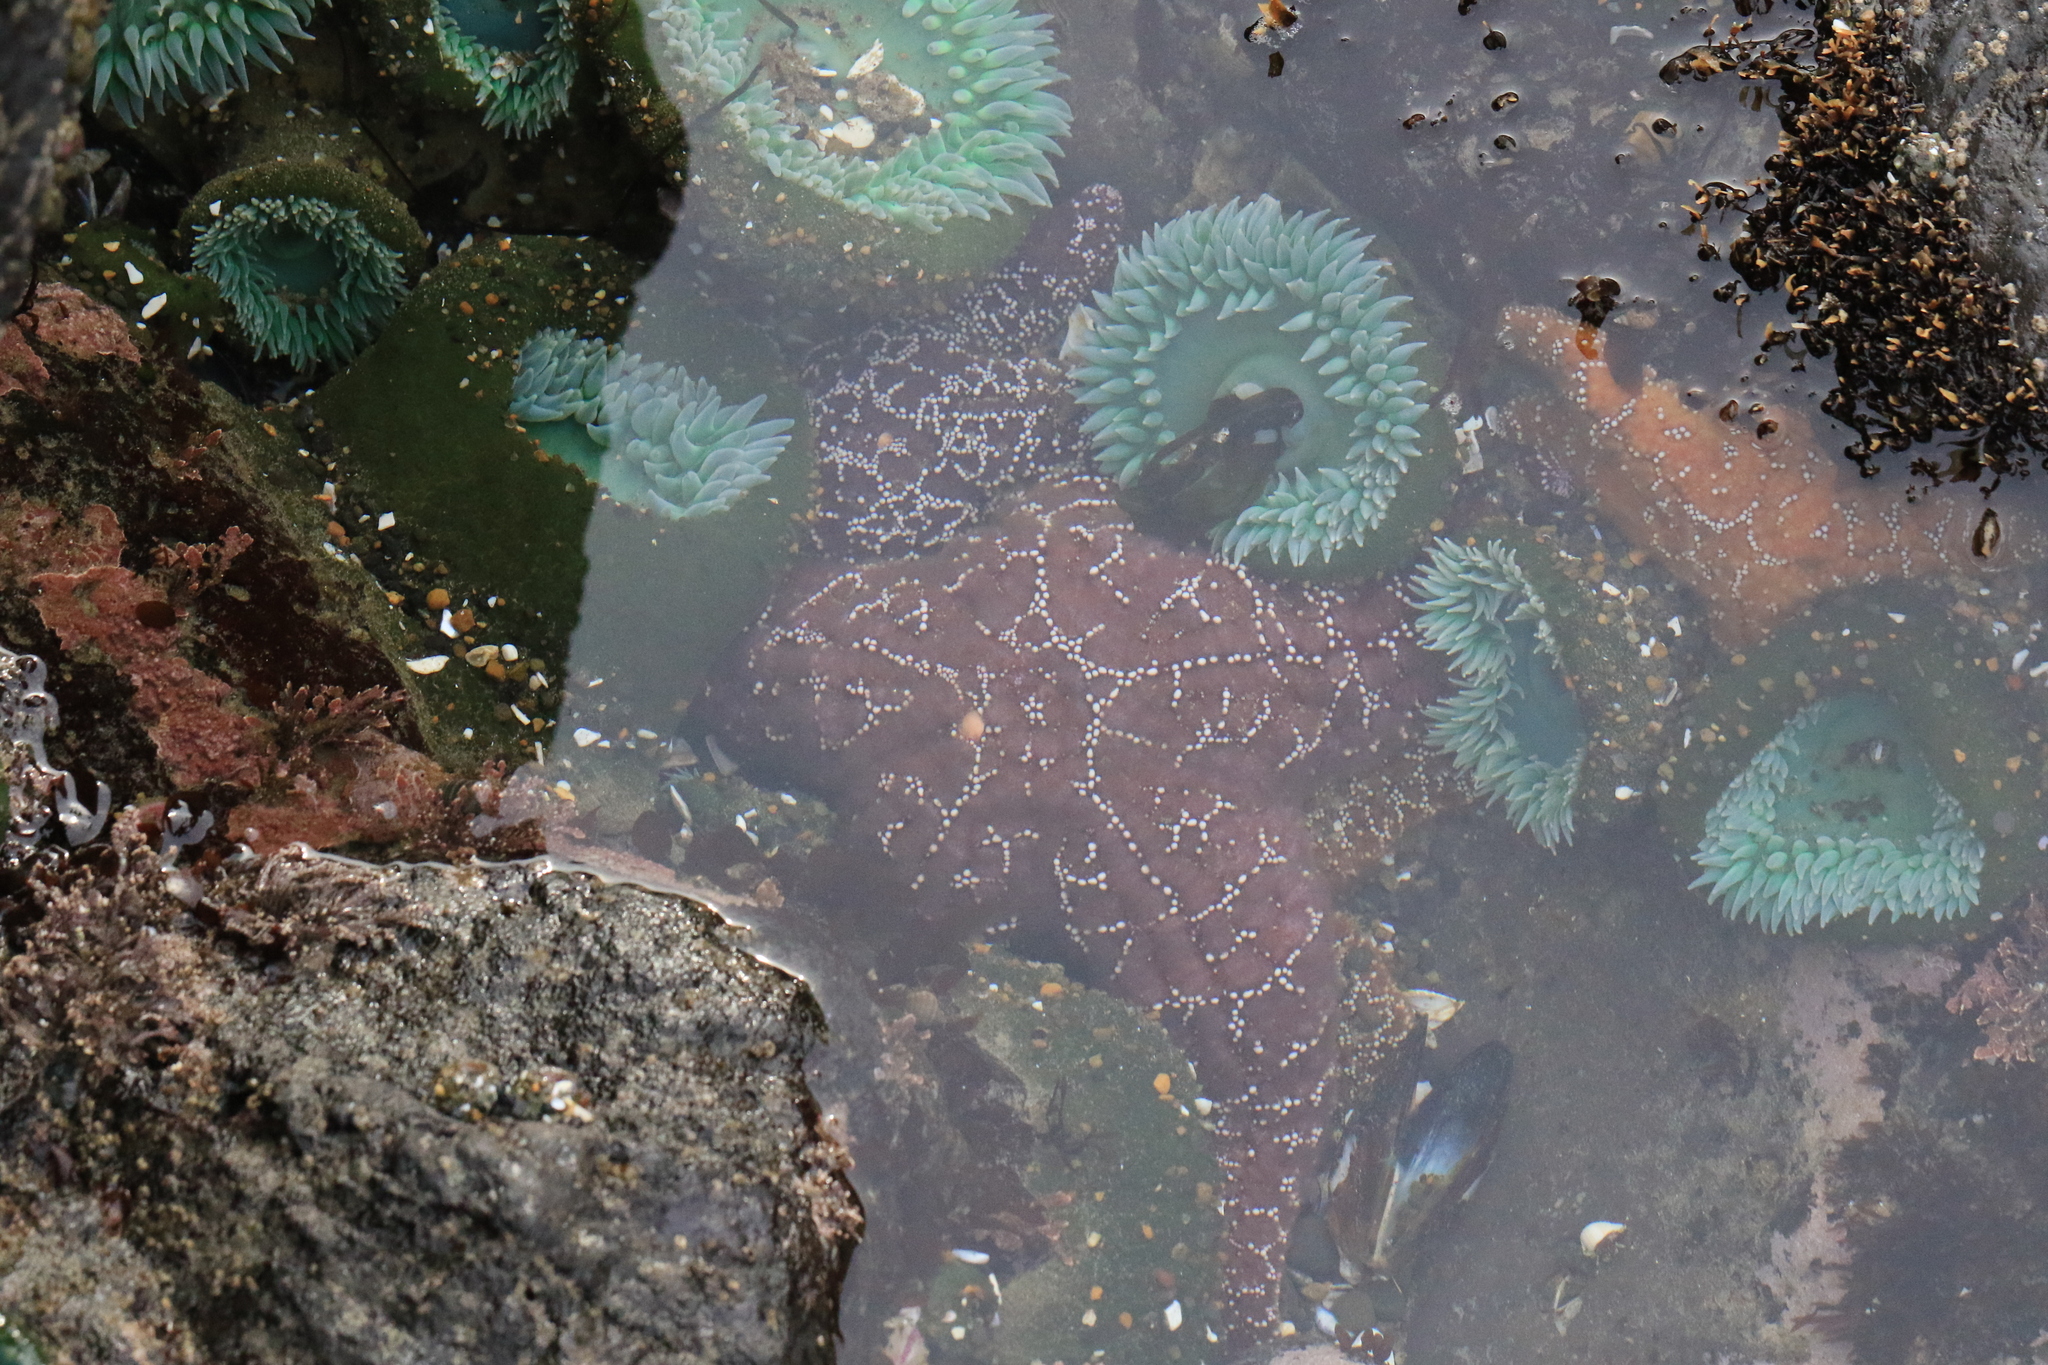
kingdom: Animalia
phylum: Echinodermata
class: Asteroidea
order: Forcipulatida
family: Asteriidae
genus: Pisaster
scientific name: Pisaster ochraceus
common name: Ochre stars
